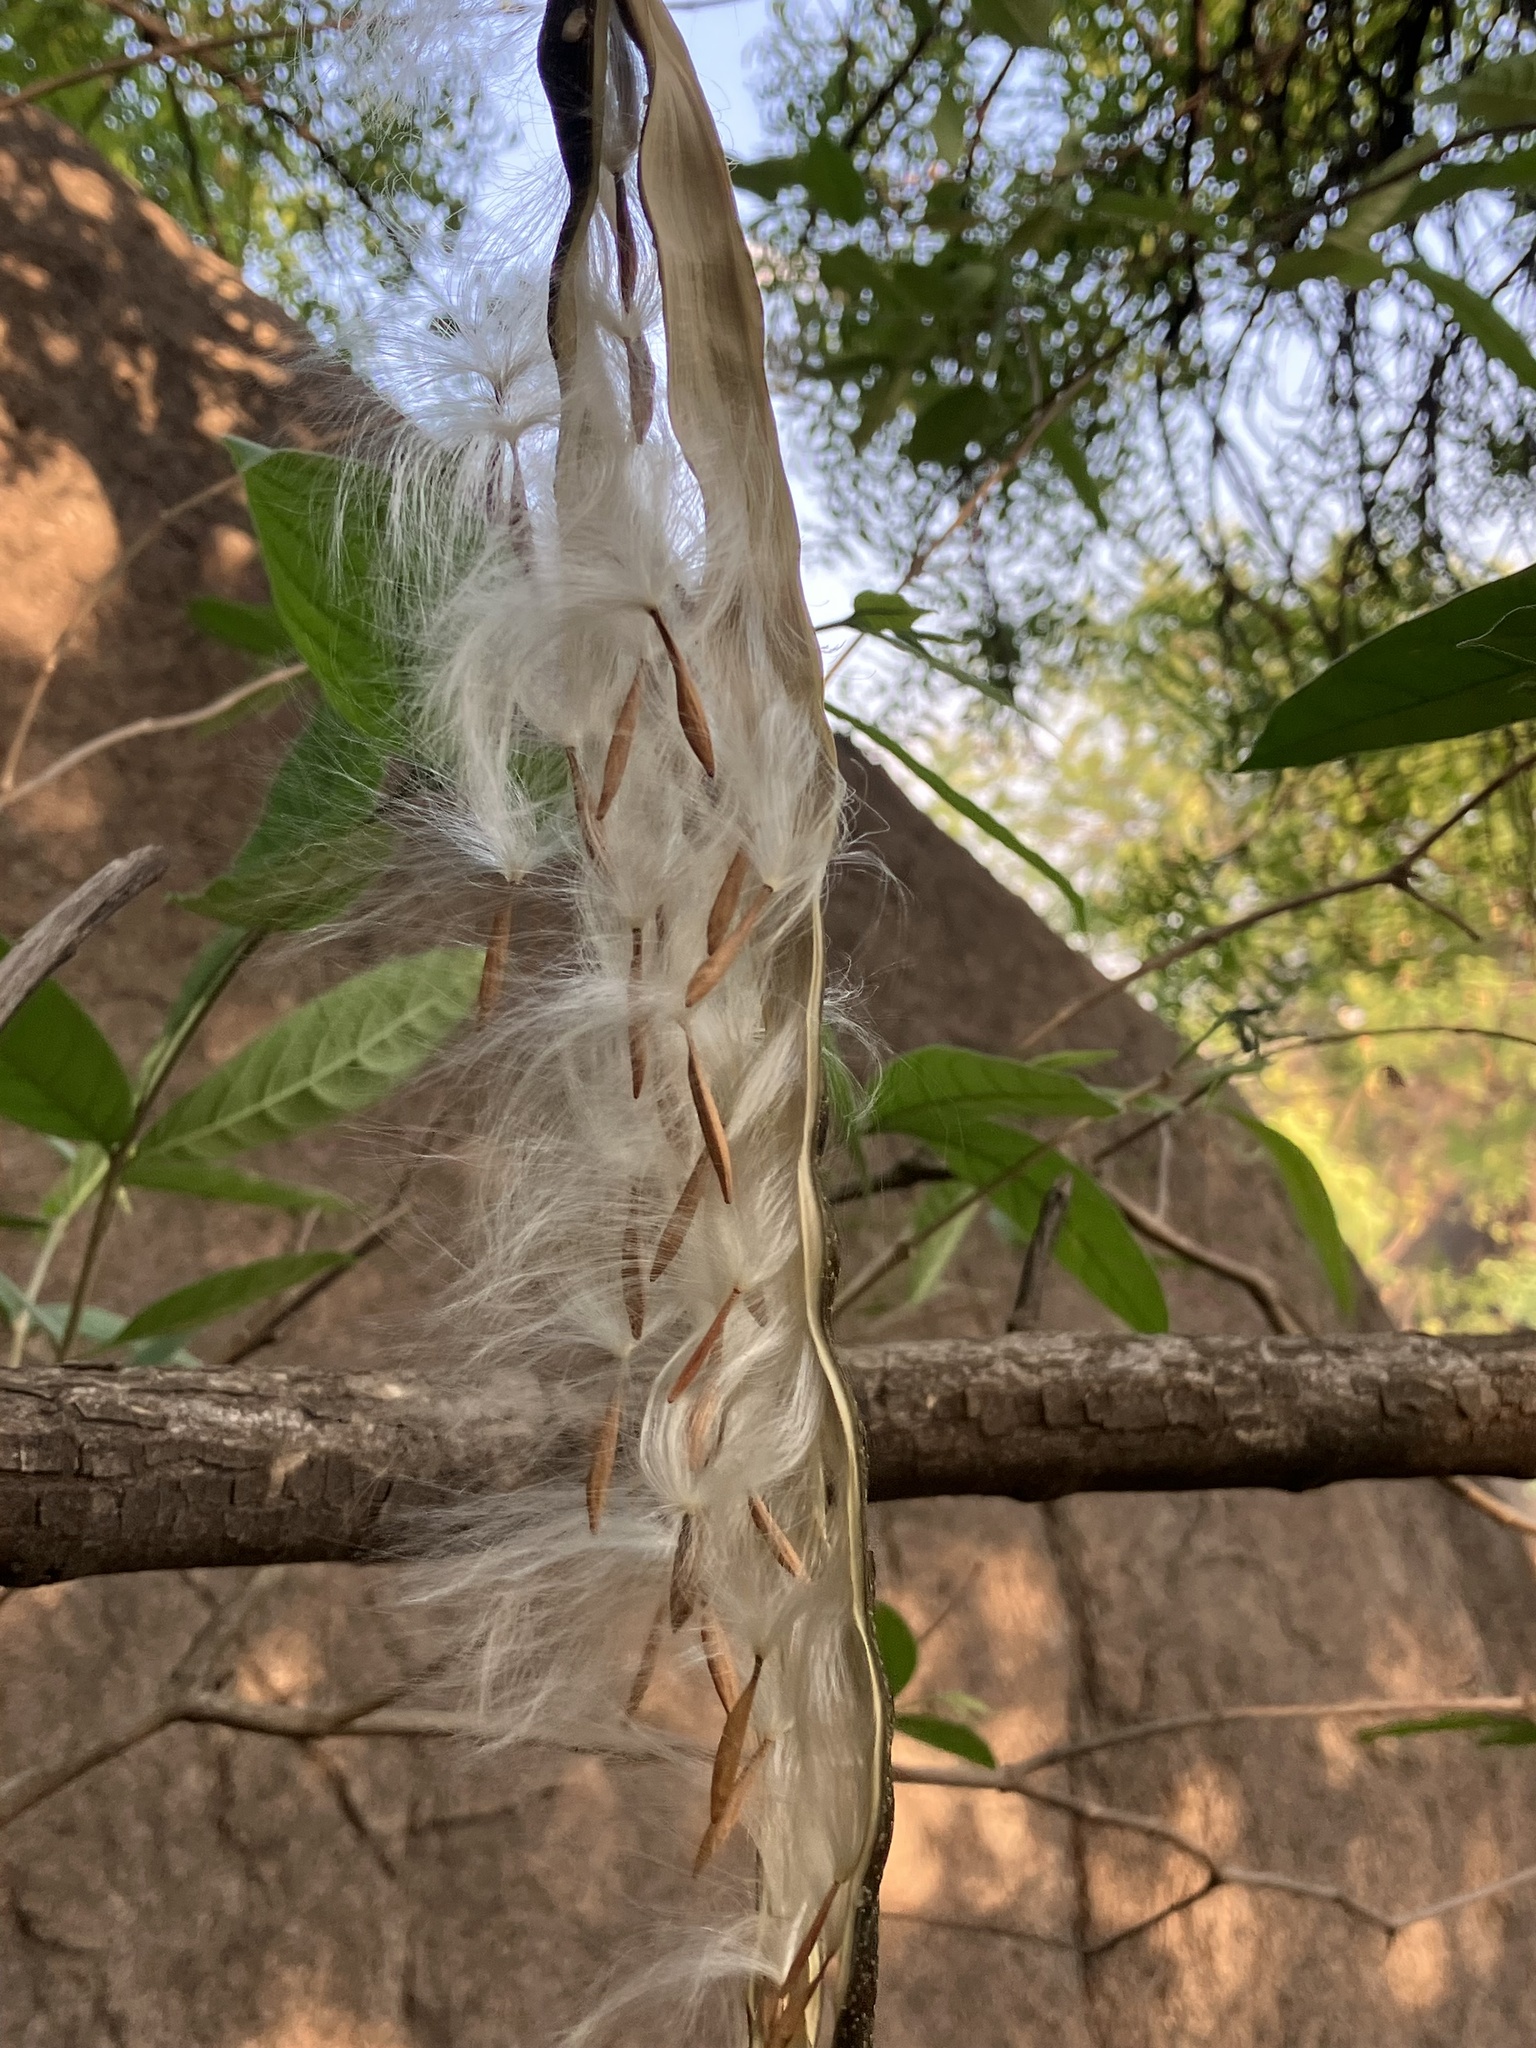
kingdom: Plantae
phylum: Tracheophyta
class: Magnoliopsida
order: Gentianales
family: Apocynaceae
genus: Wrightia
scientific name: Wrightia tinctoria
